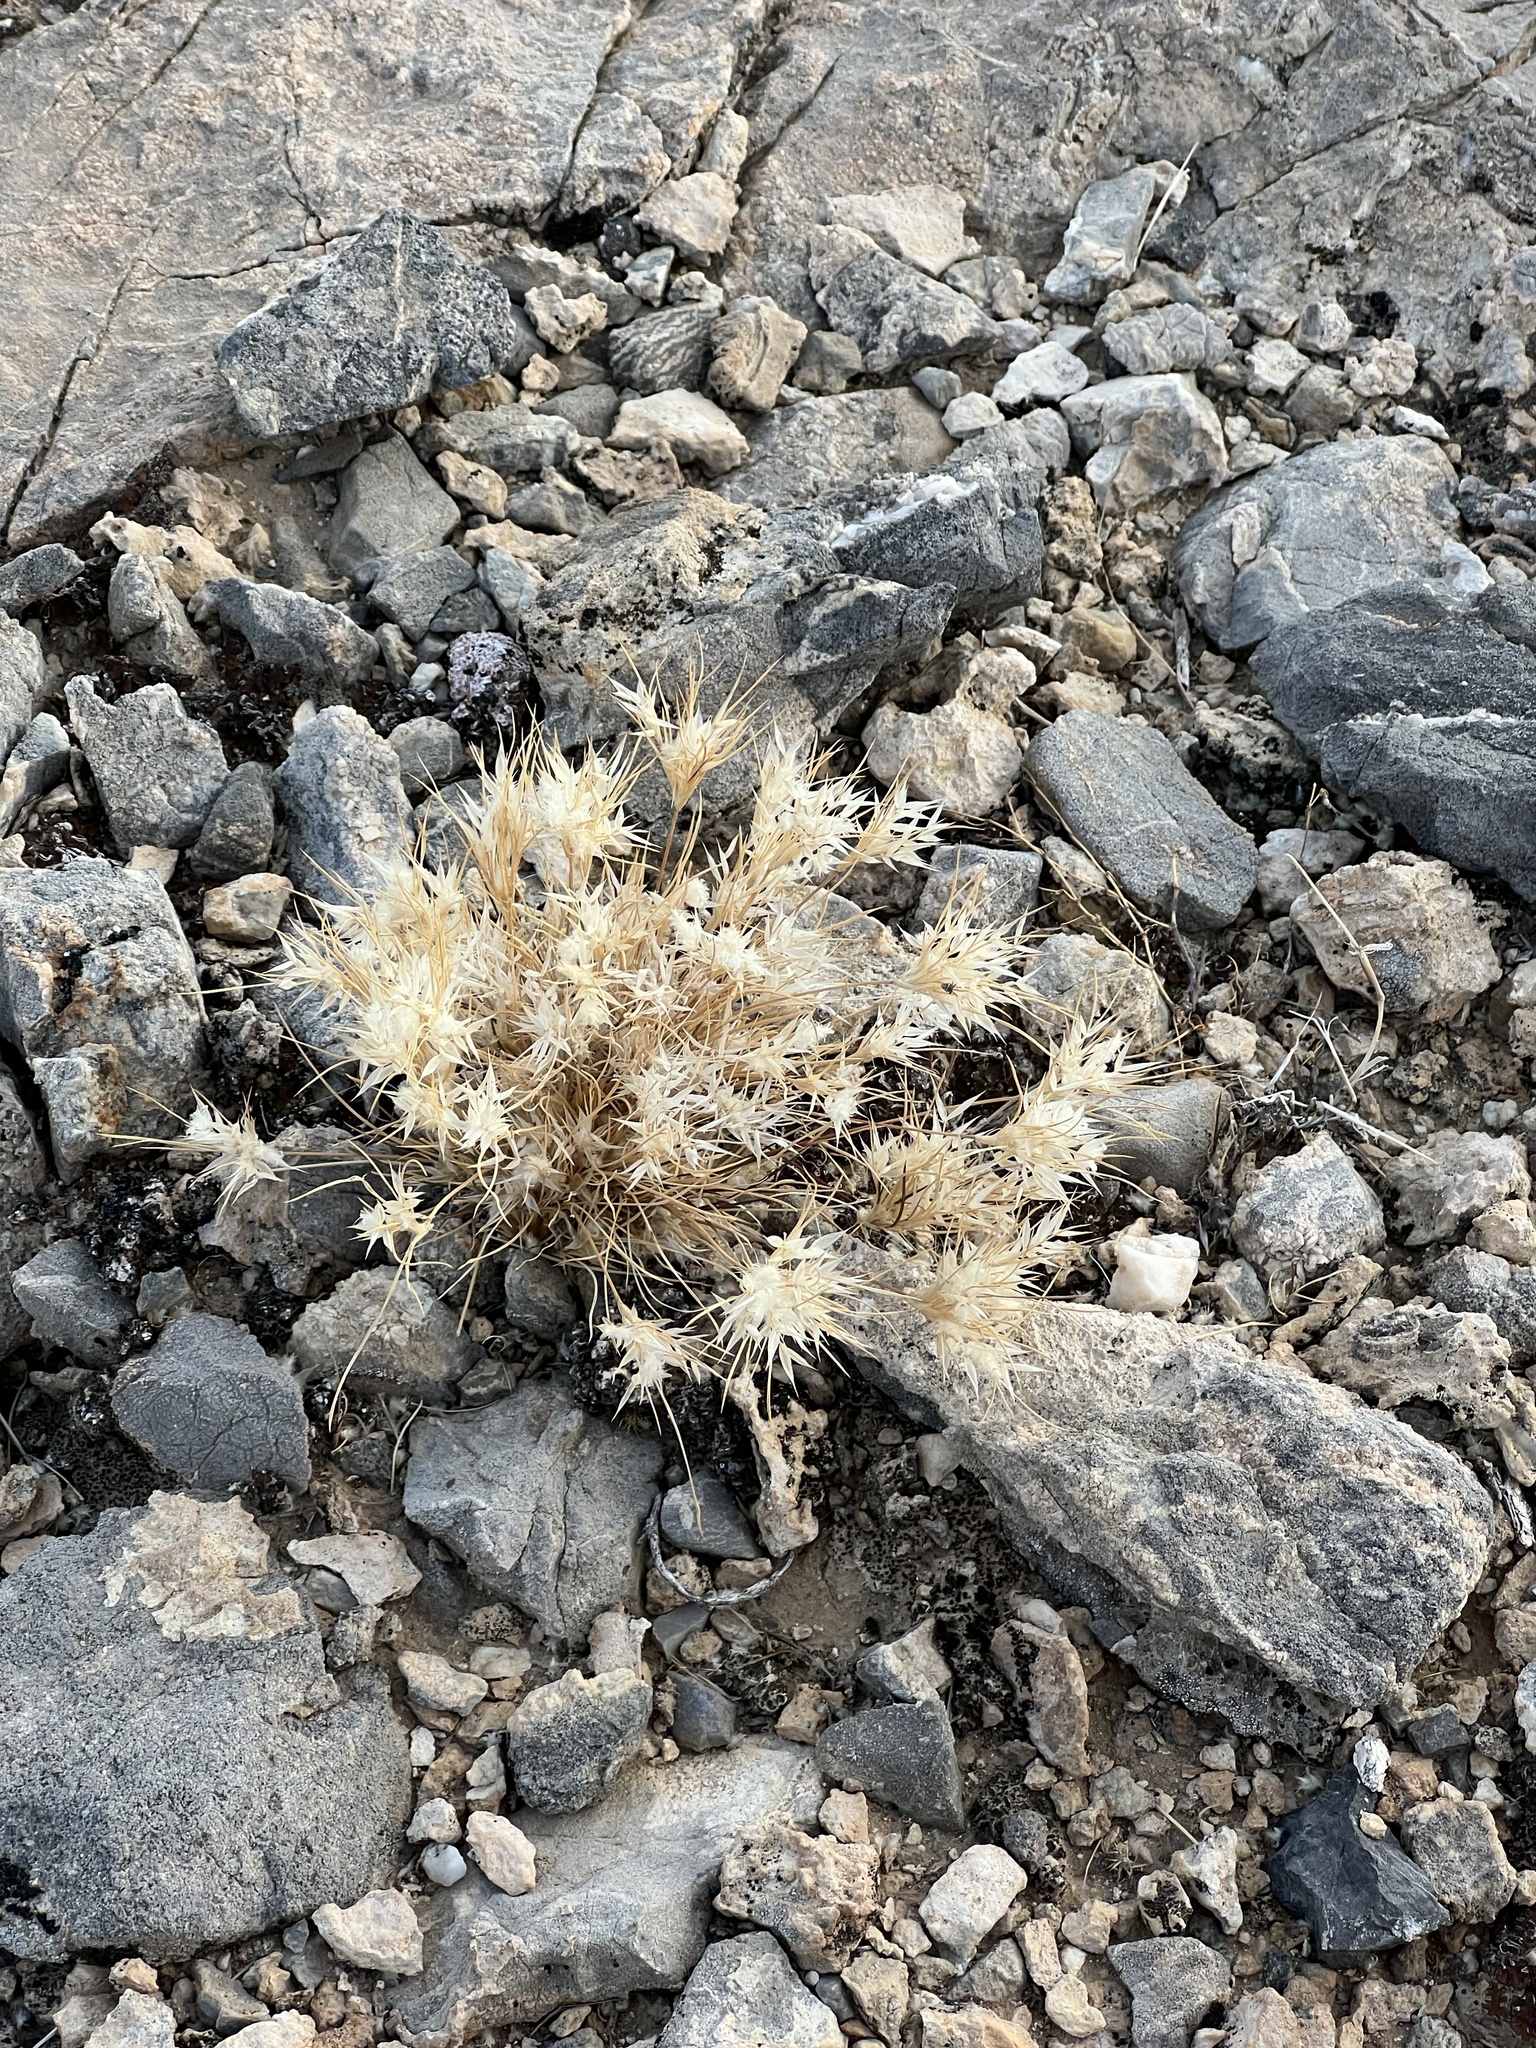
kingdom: Plantae
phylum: Tracheophyta
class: Liliopsida
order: Poales
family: Poaceae
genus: Dasyochloa
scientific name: Dasyochloa pulchella
